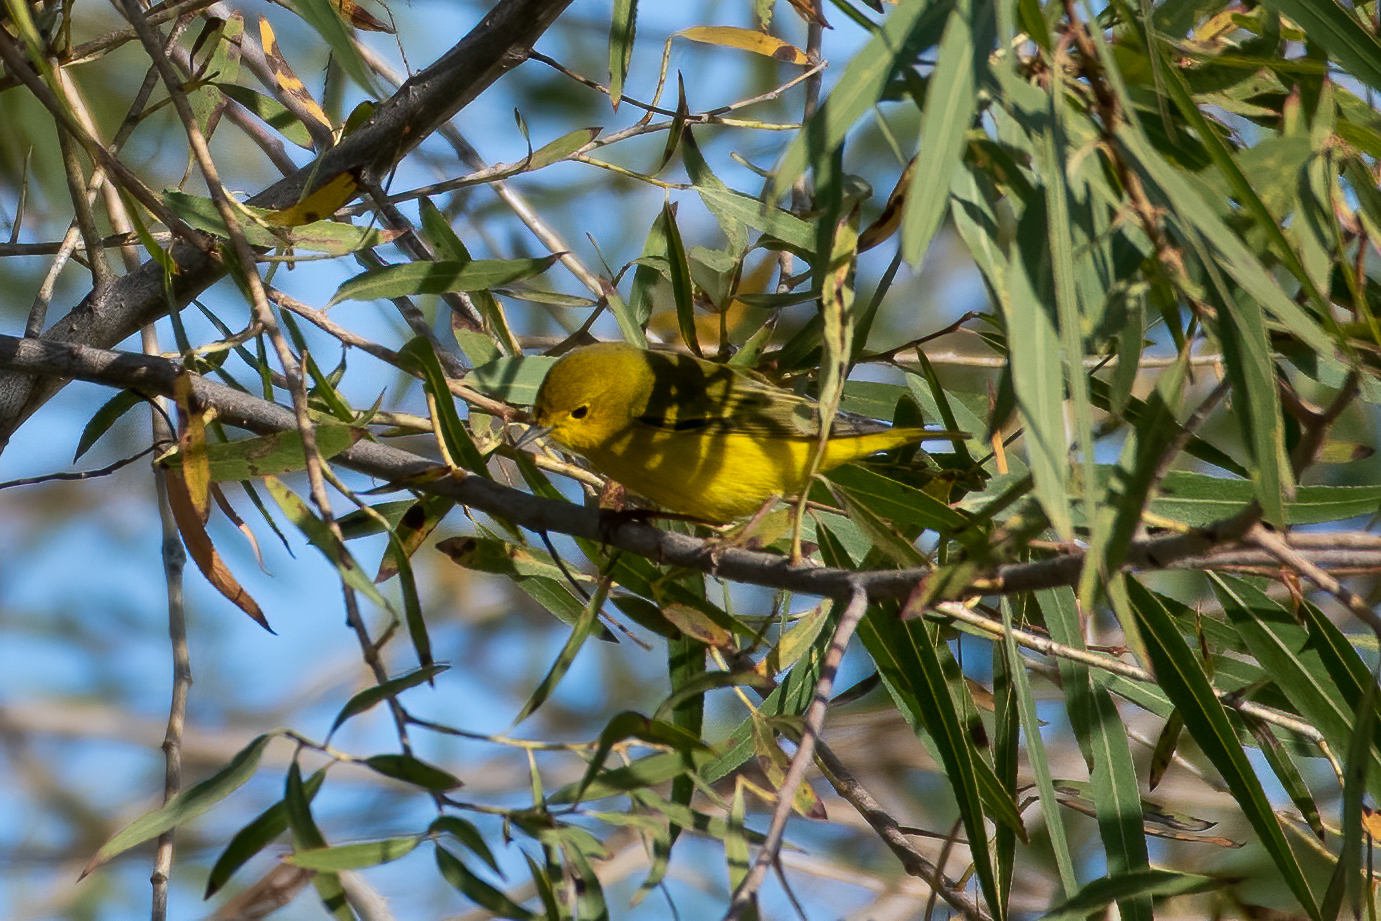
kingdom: Animalia
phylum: Chordata
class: Aves
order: Passeriformes
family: Parulidae
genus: Setophaga
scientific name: Setophaga petechia
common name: Yellow warbler
